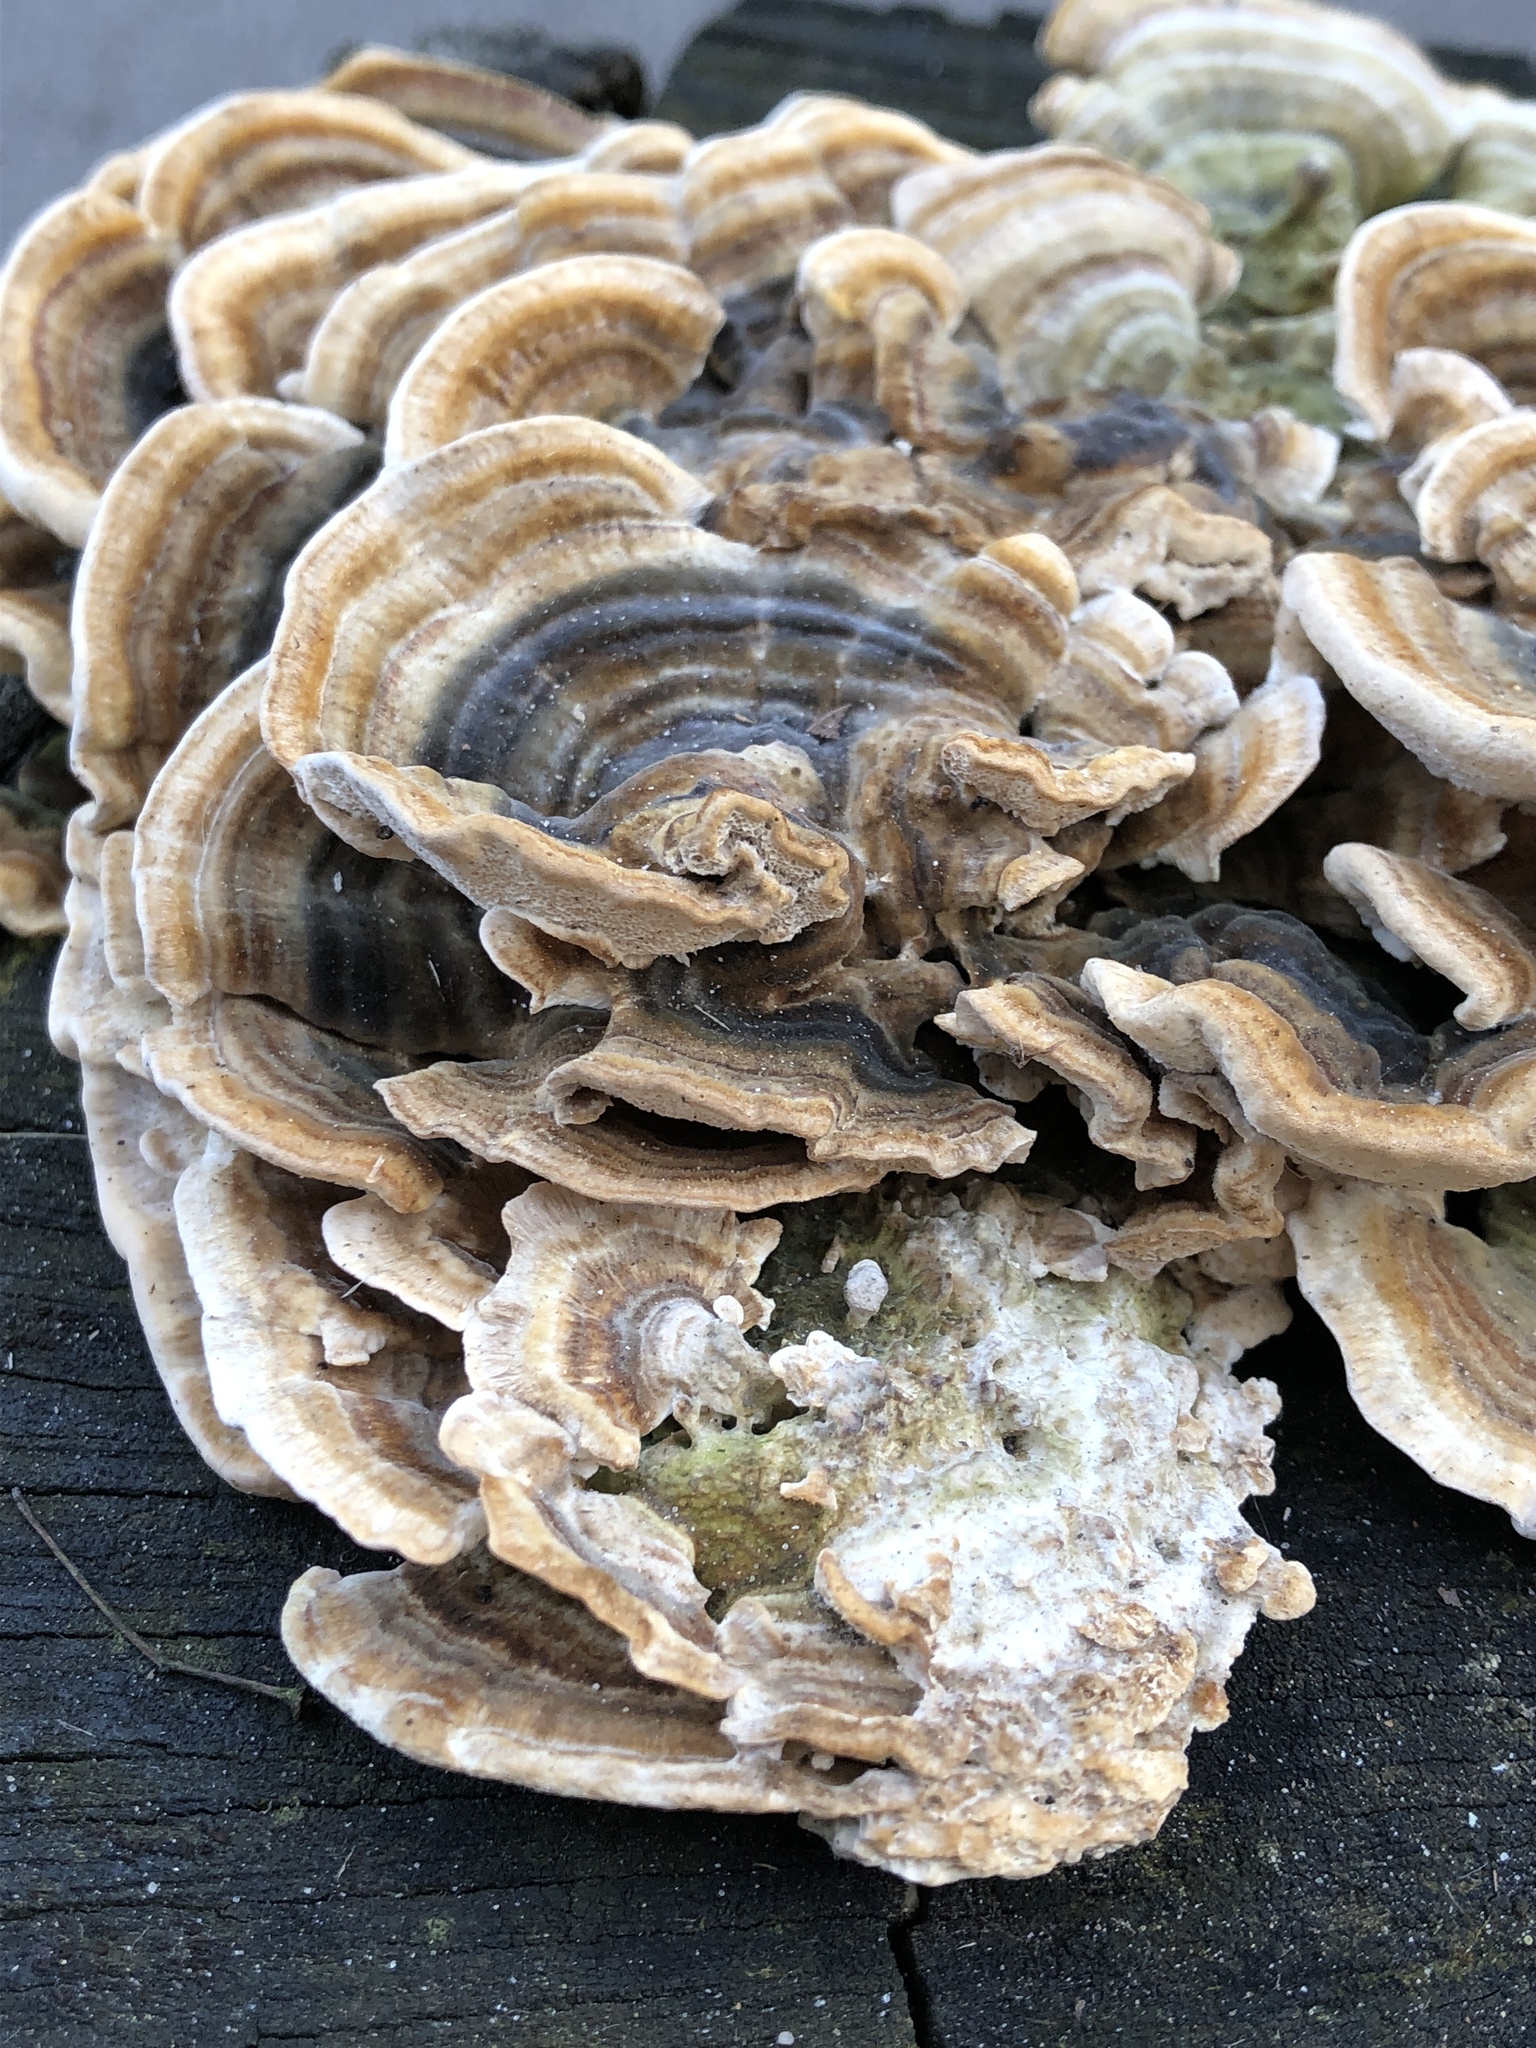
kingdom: Fungi
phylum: Basidiomycota
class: Agaricomycetes
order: Polyporales
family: Polyporaceae
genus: Trametes
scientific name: Trametes versicolor
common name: Turkeytail
